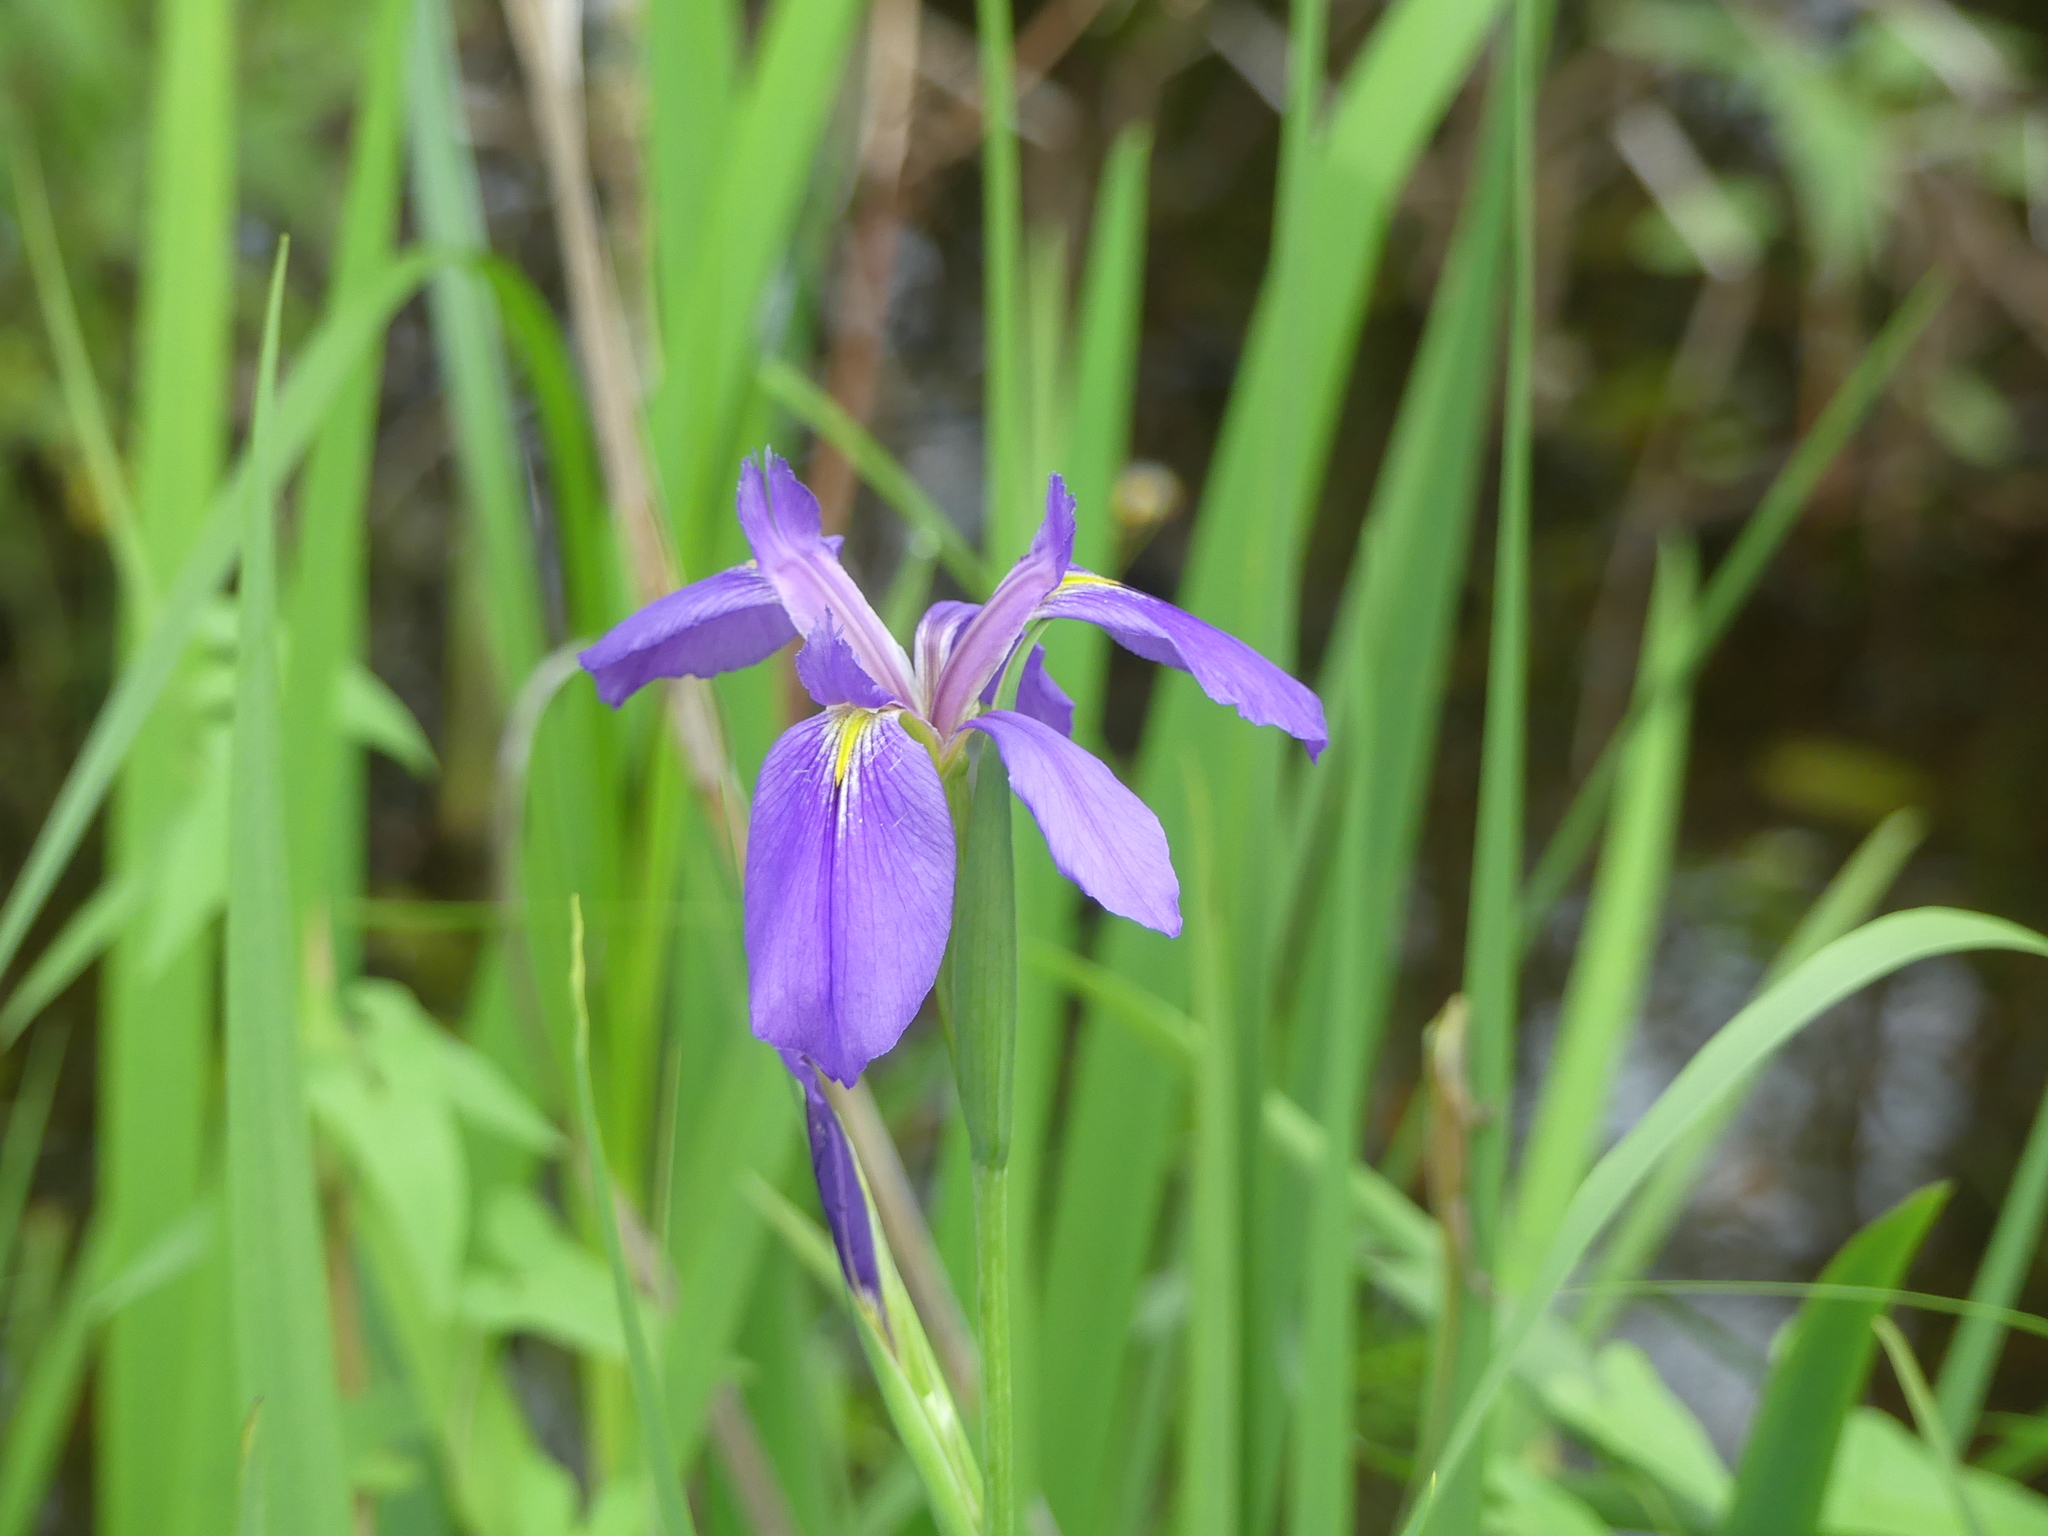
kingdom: Plantae
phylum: Tracheophyta
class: Liliopsida
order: Asparagales
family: Iridaceae
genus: Iris
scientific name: Iris giganticaerulea
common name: Giant blue iris
